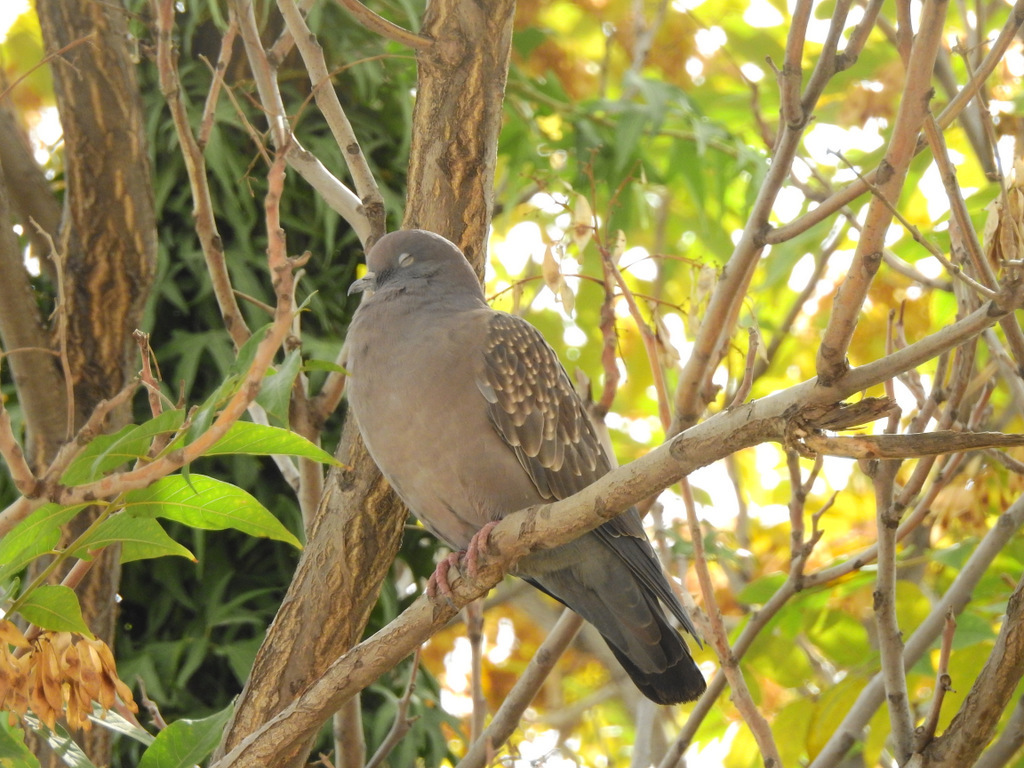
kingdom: Animalia
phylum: Chordata
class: Aves
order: Columbiformes
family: Columbidae
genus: Patagioenas
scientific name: Patagioenas maculosa
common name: Spot-winged pigeon
